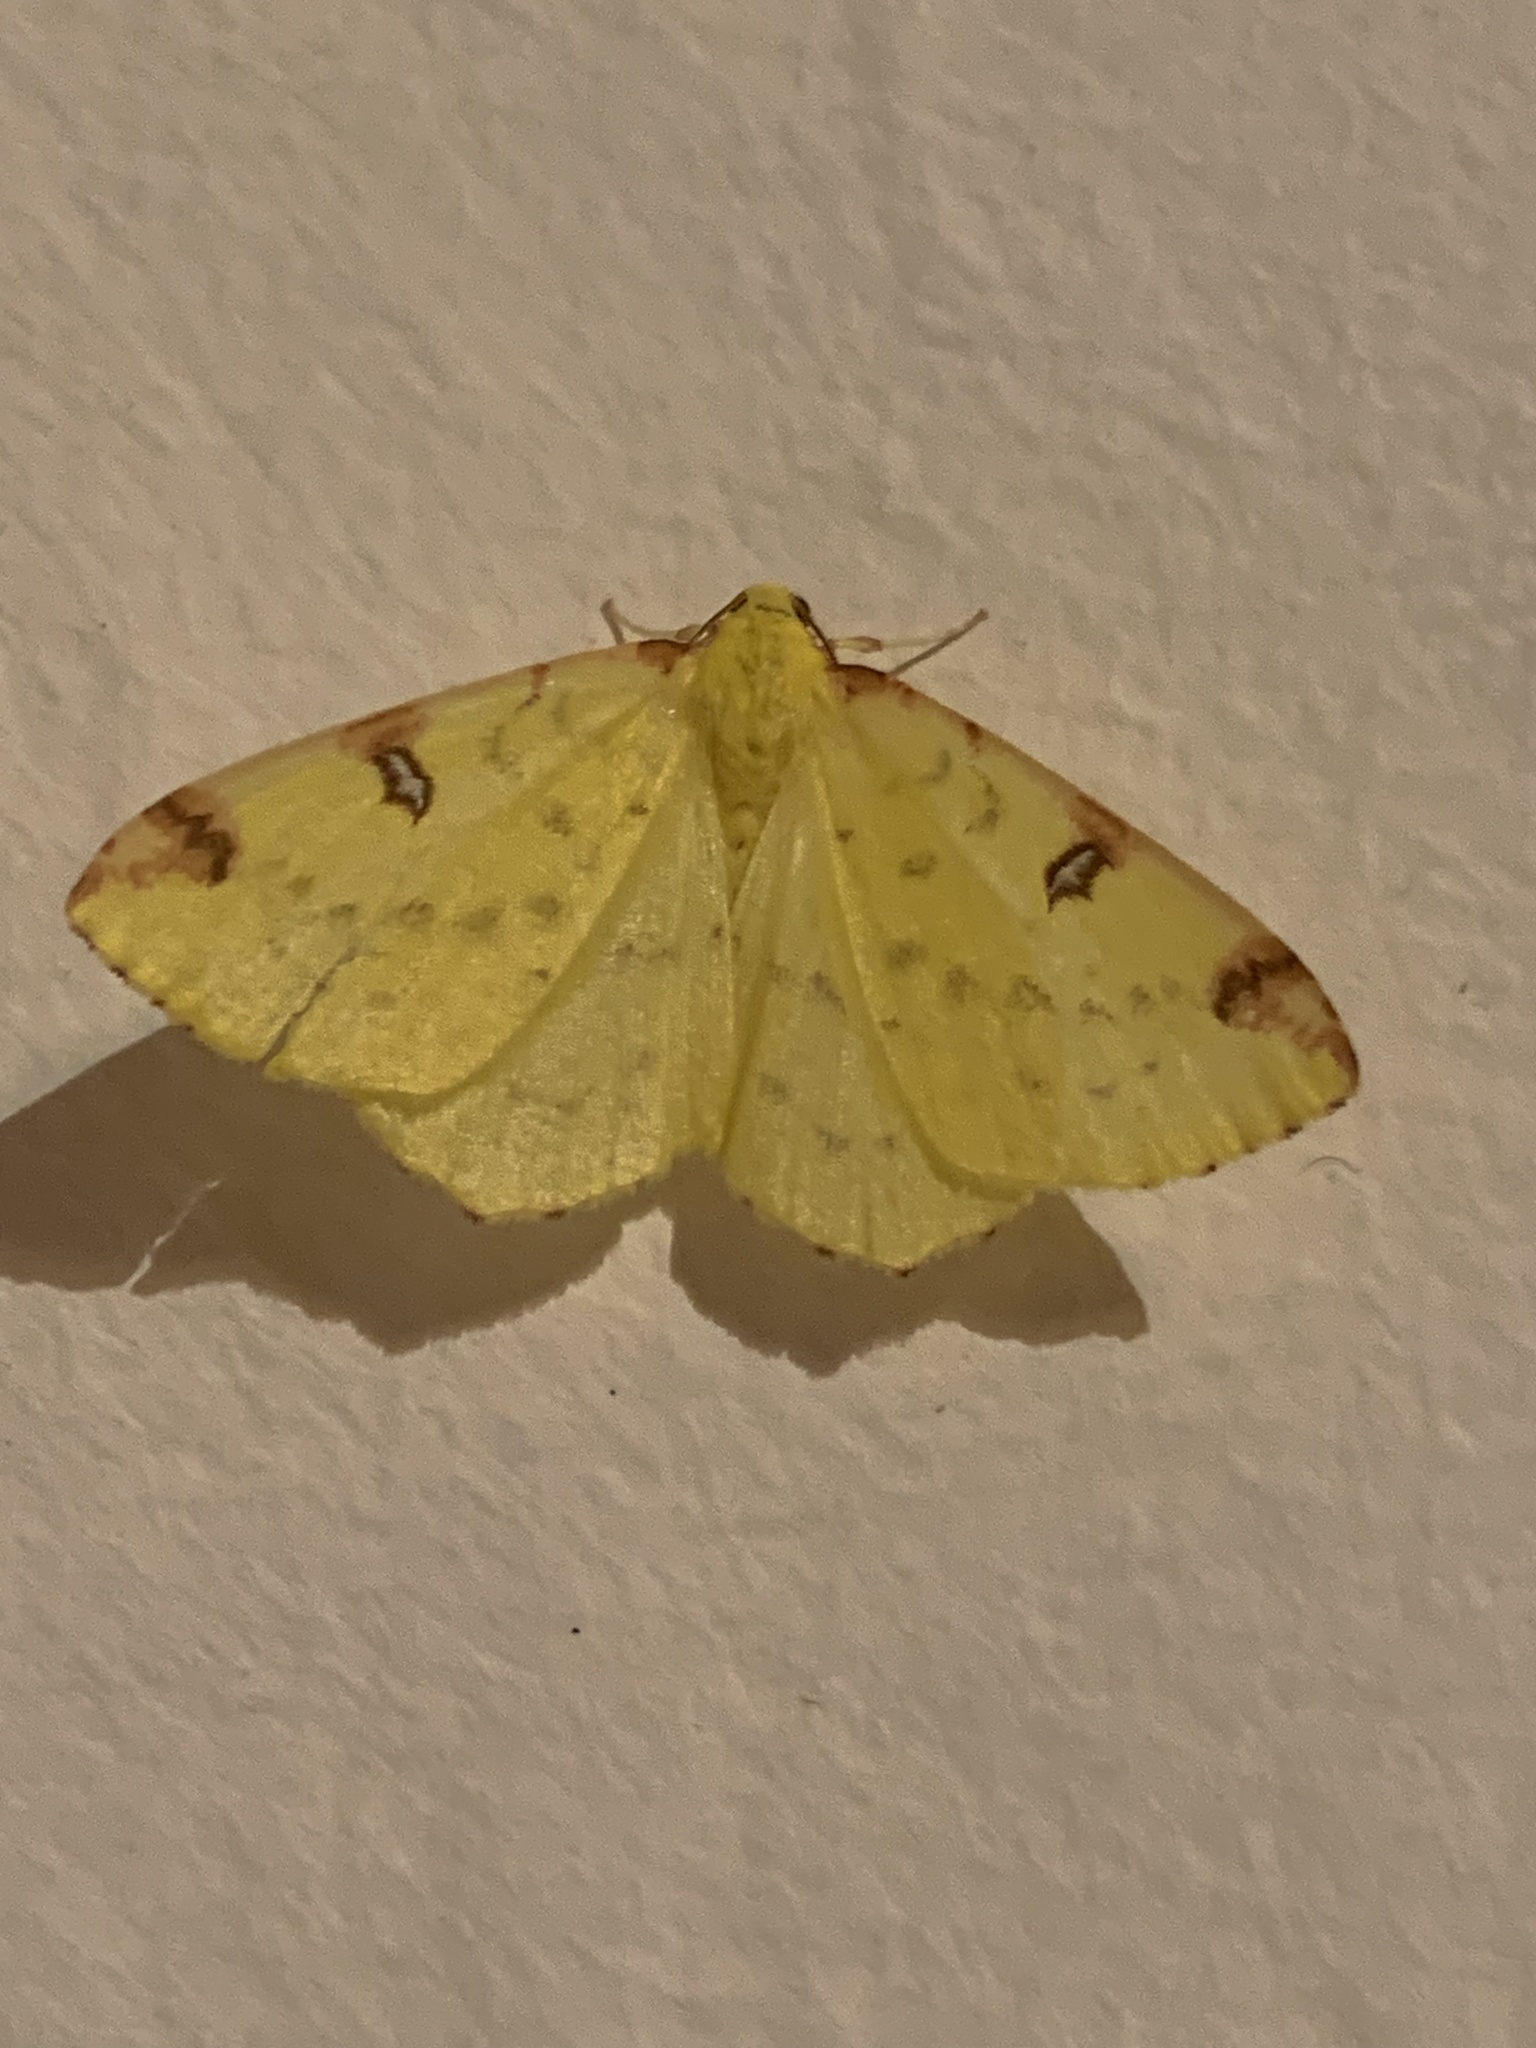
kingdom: Animalia
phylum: Arthropoda
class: Insecta
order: Lepidoptera
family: Geometridae
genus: Opisthograptis
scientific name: Opisthograptis luteolata
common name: Brimstone moth
